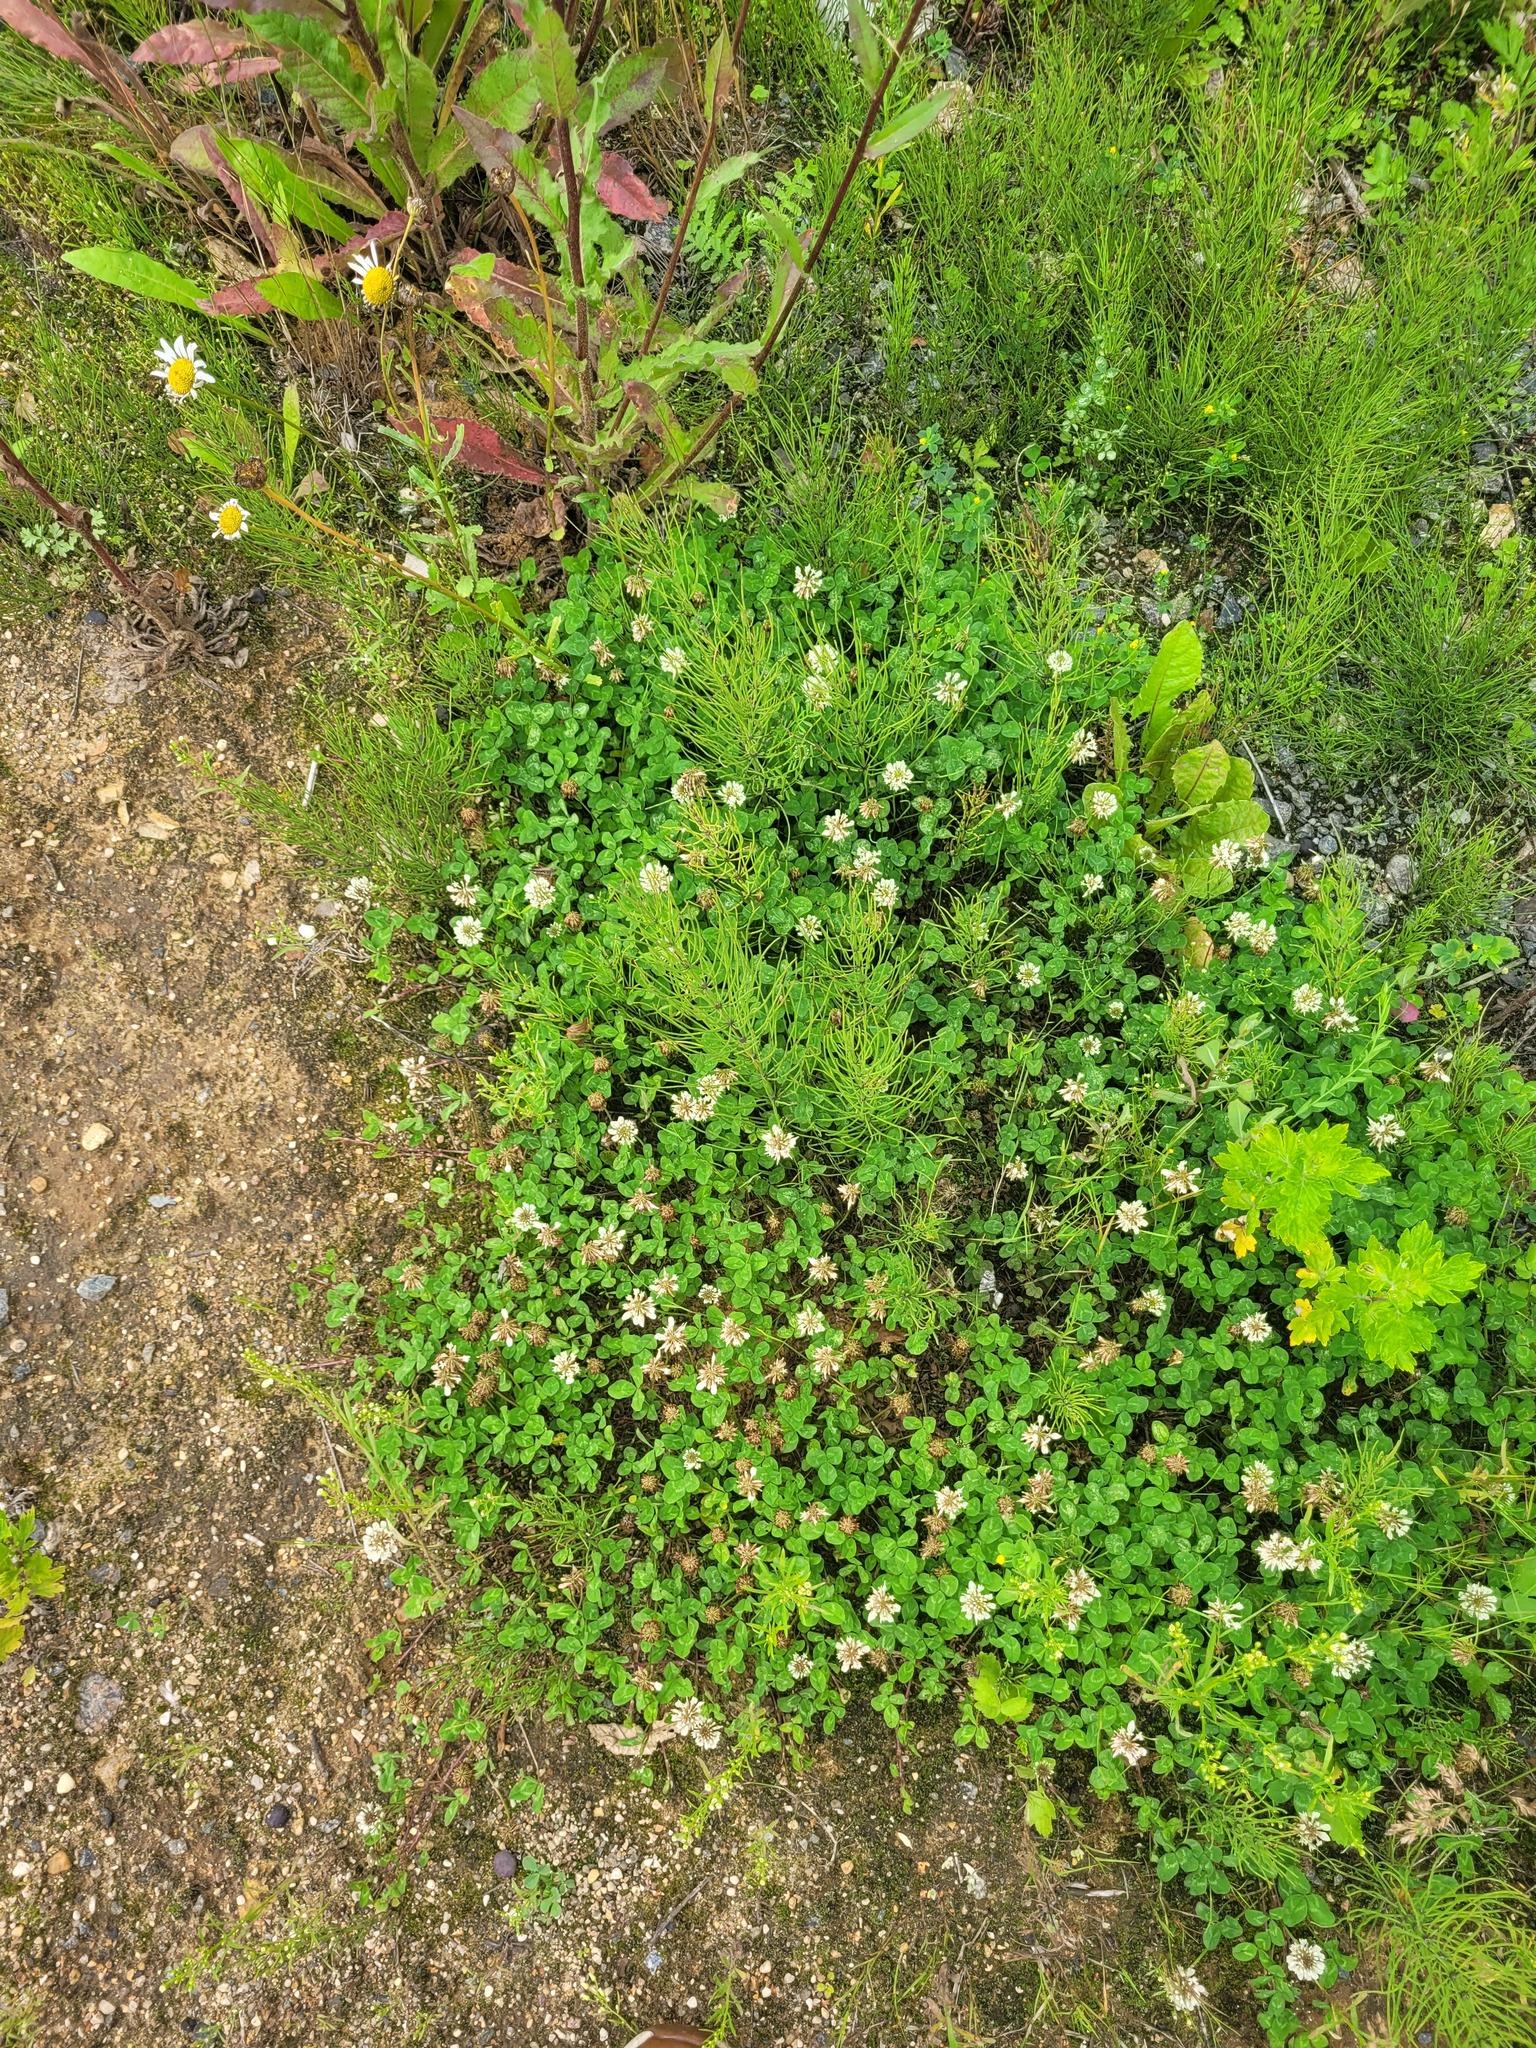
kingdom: Plantae
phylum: Tracheophyta
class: Magnoliopsida
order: Fabales
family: Fabaceae
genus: Trifolium
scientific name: Trifolium repens
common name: White clover
